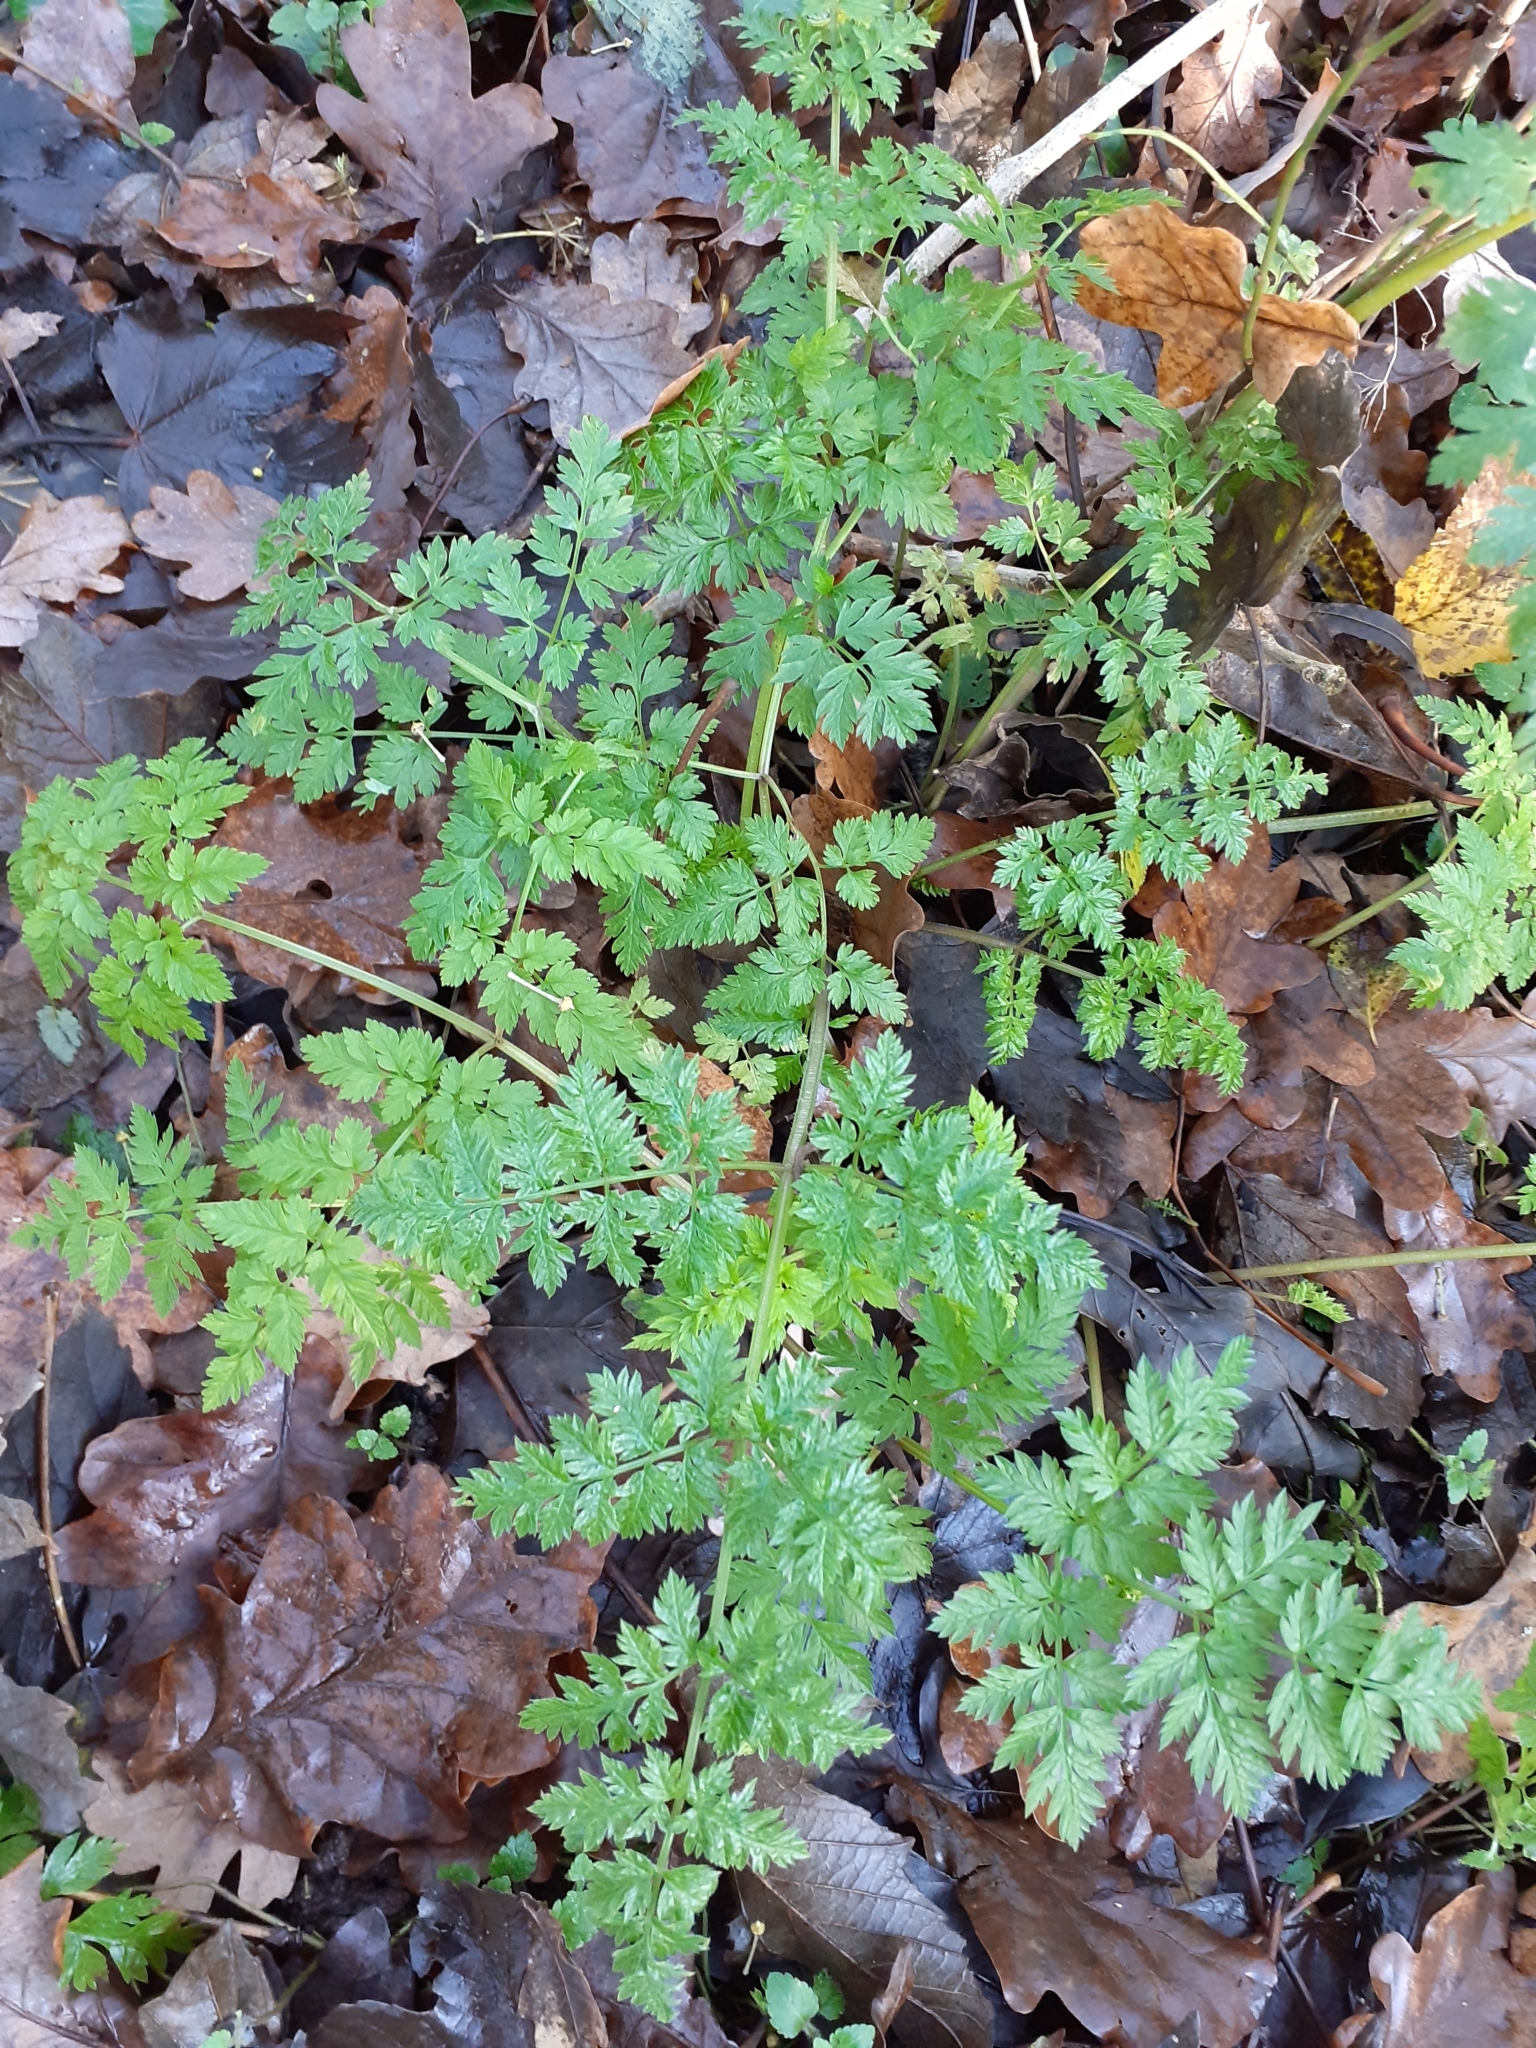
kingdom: Plantae
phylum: Tracheophyta
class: Magnoliopsida
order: Apiales
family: Apiaceae
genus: Anthriscus
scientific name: Anthriscus sylvestris
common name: Cow parsley
